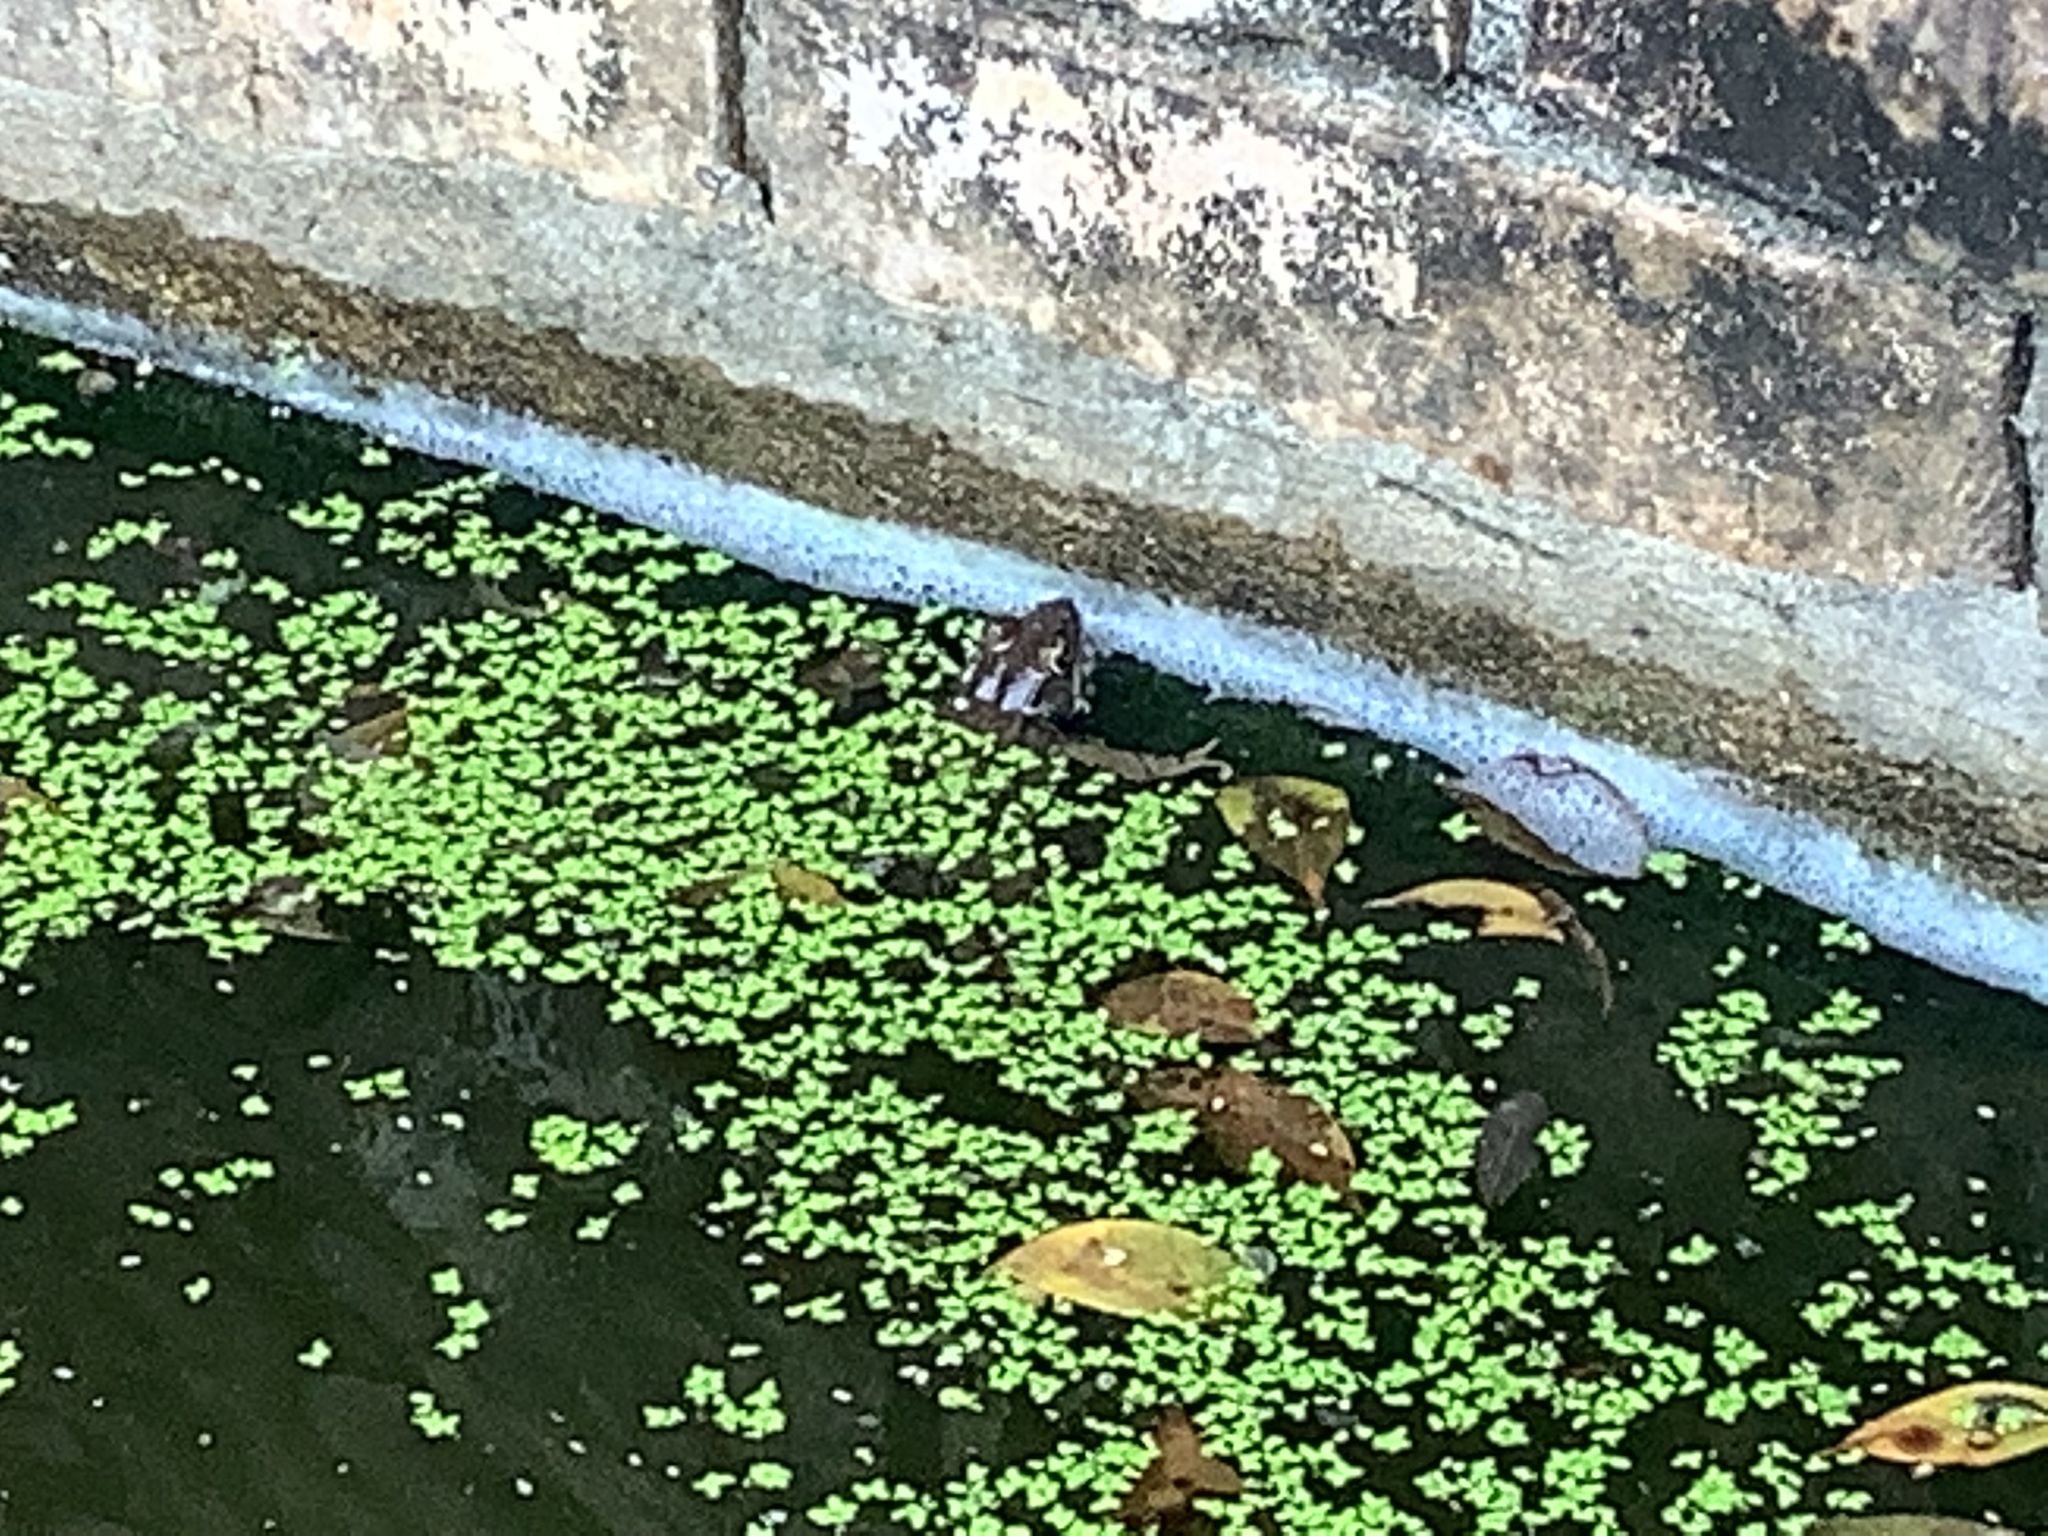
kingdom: Plantae
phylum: Tracheophyta
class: Liliopsida
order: Alismatales
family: Araceae
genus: Lemna
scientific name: Lemna minor
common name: Common duckweed
